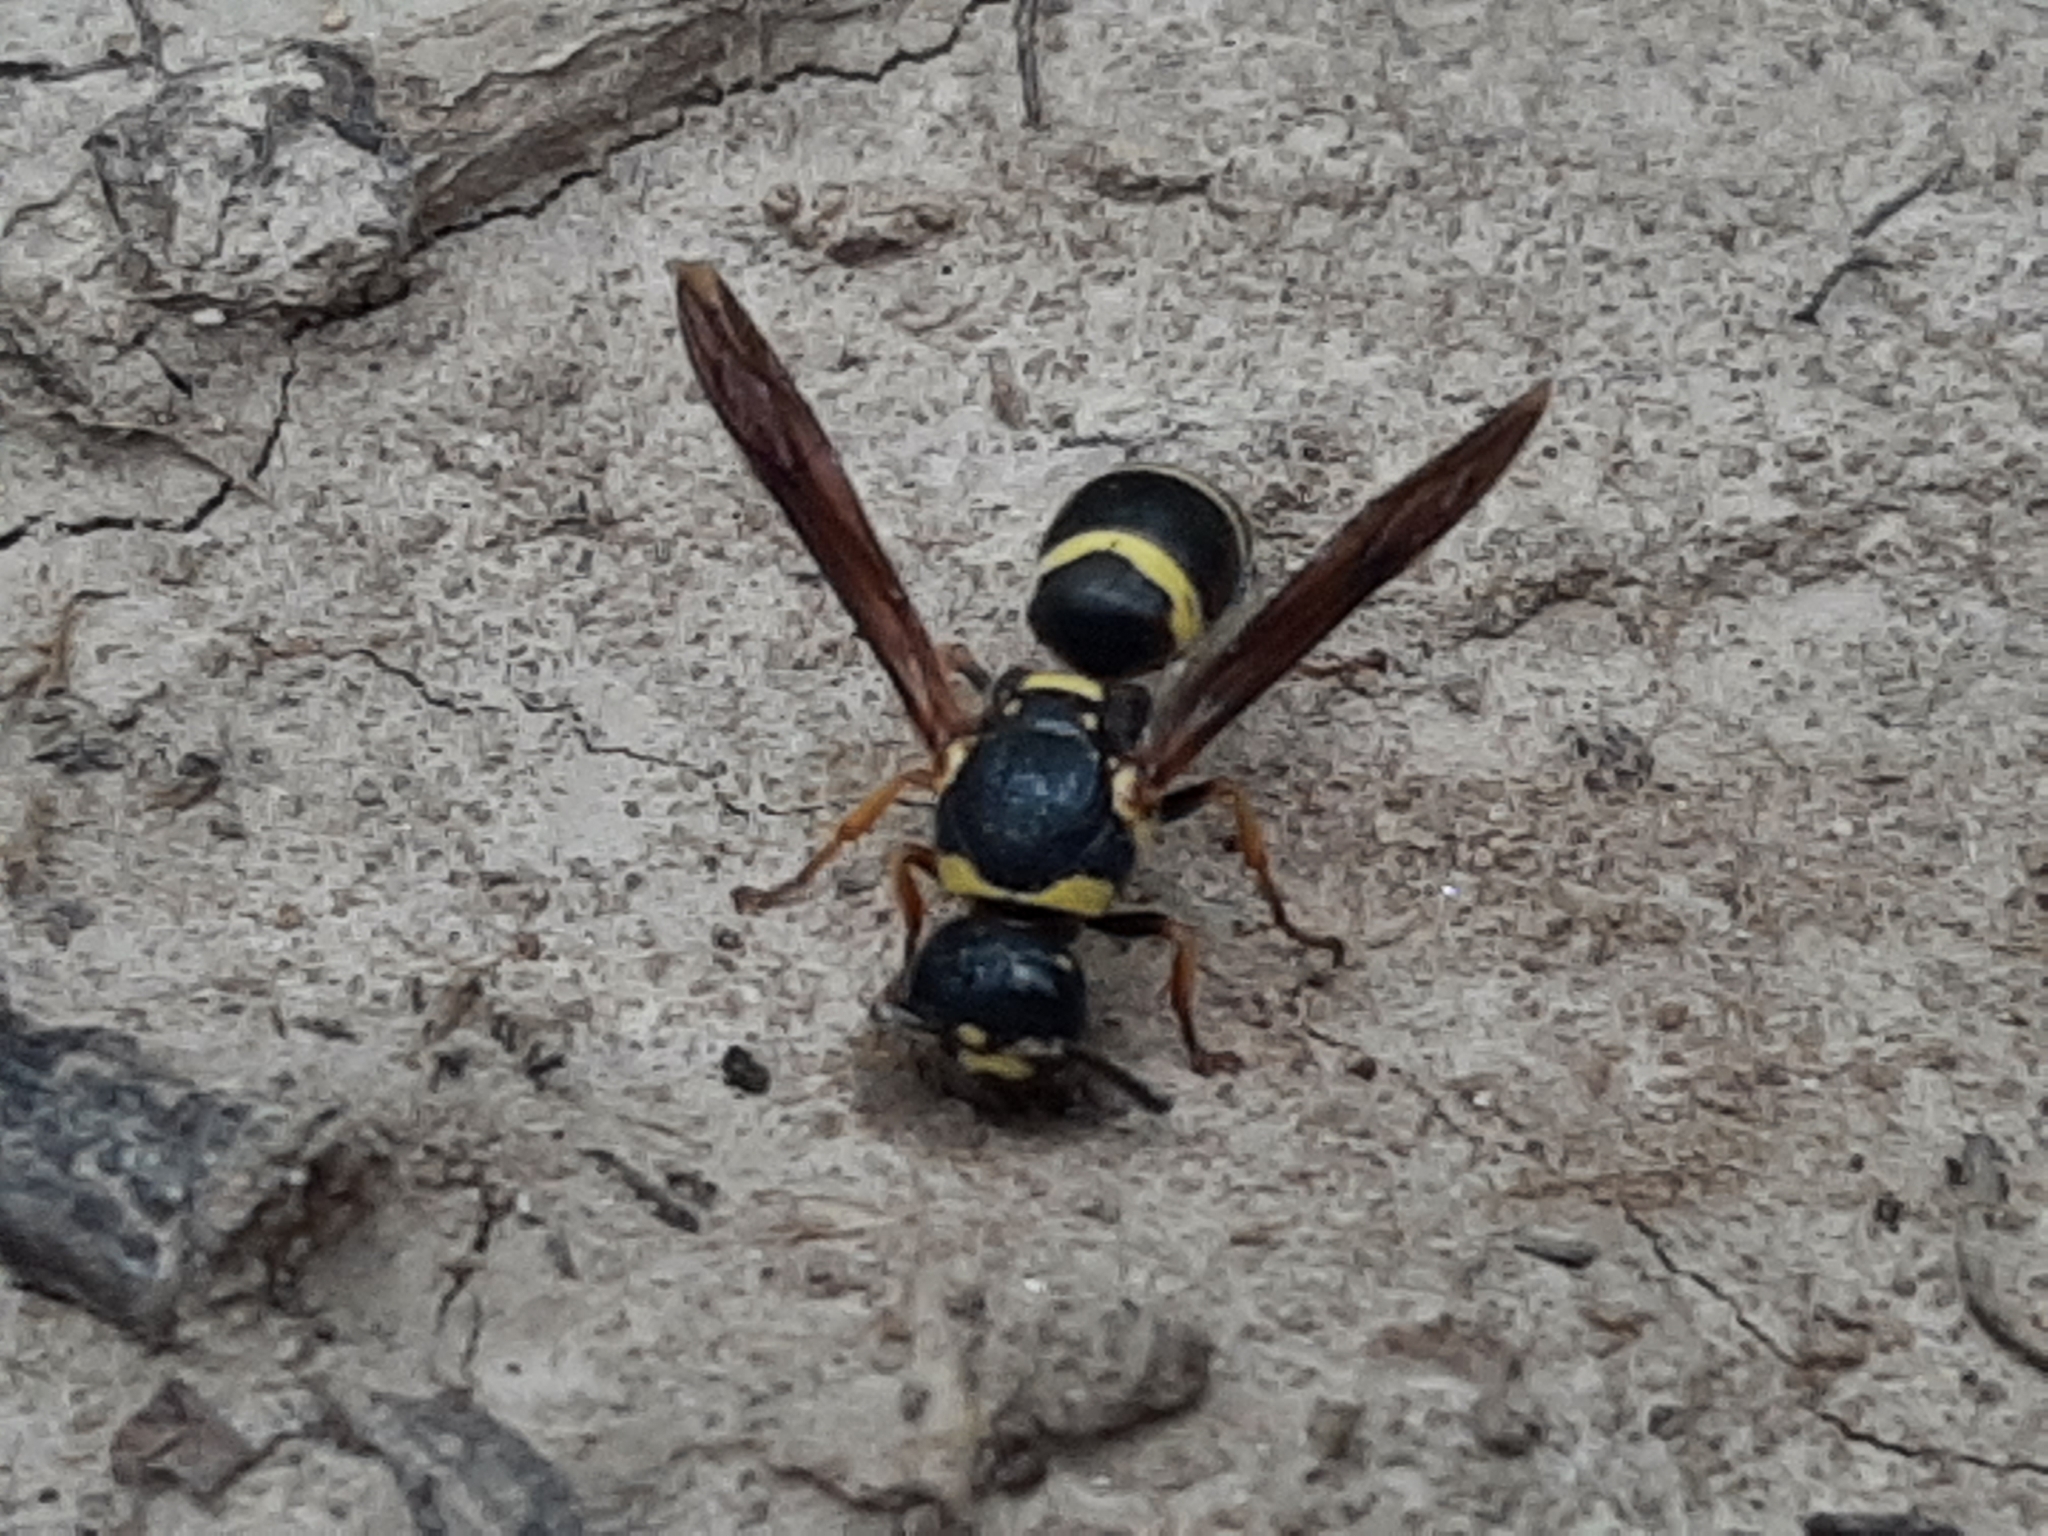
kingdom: Animalia
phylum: Arthropoda
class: Insecta
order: Hymenoptera
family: Eumenidae
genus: Euodynerus
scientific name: Euodynerus foraminatus
